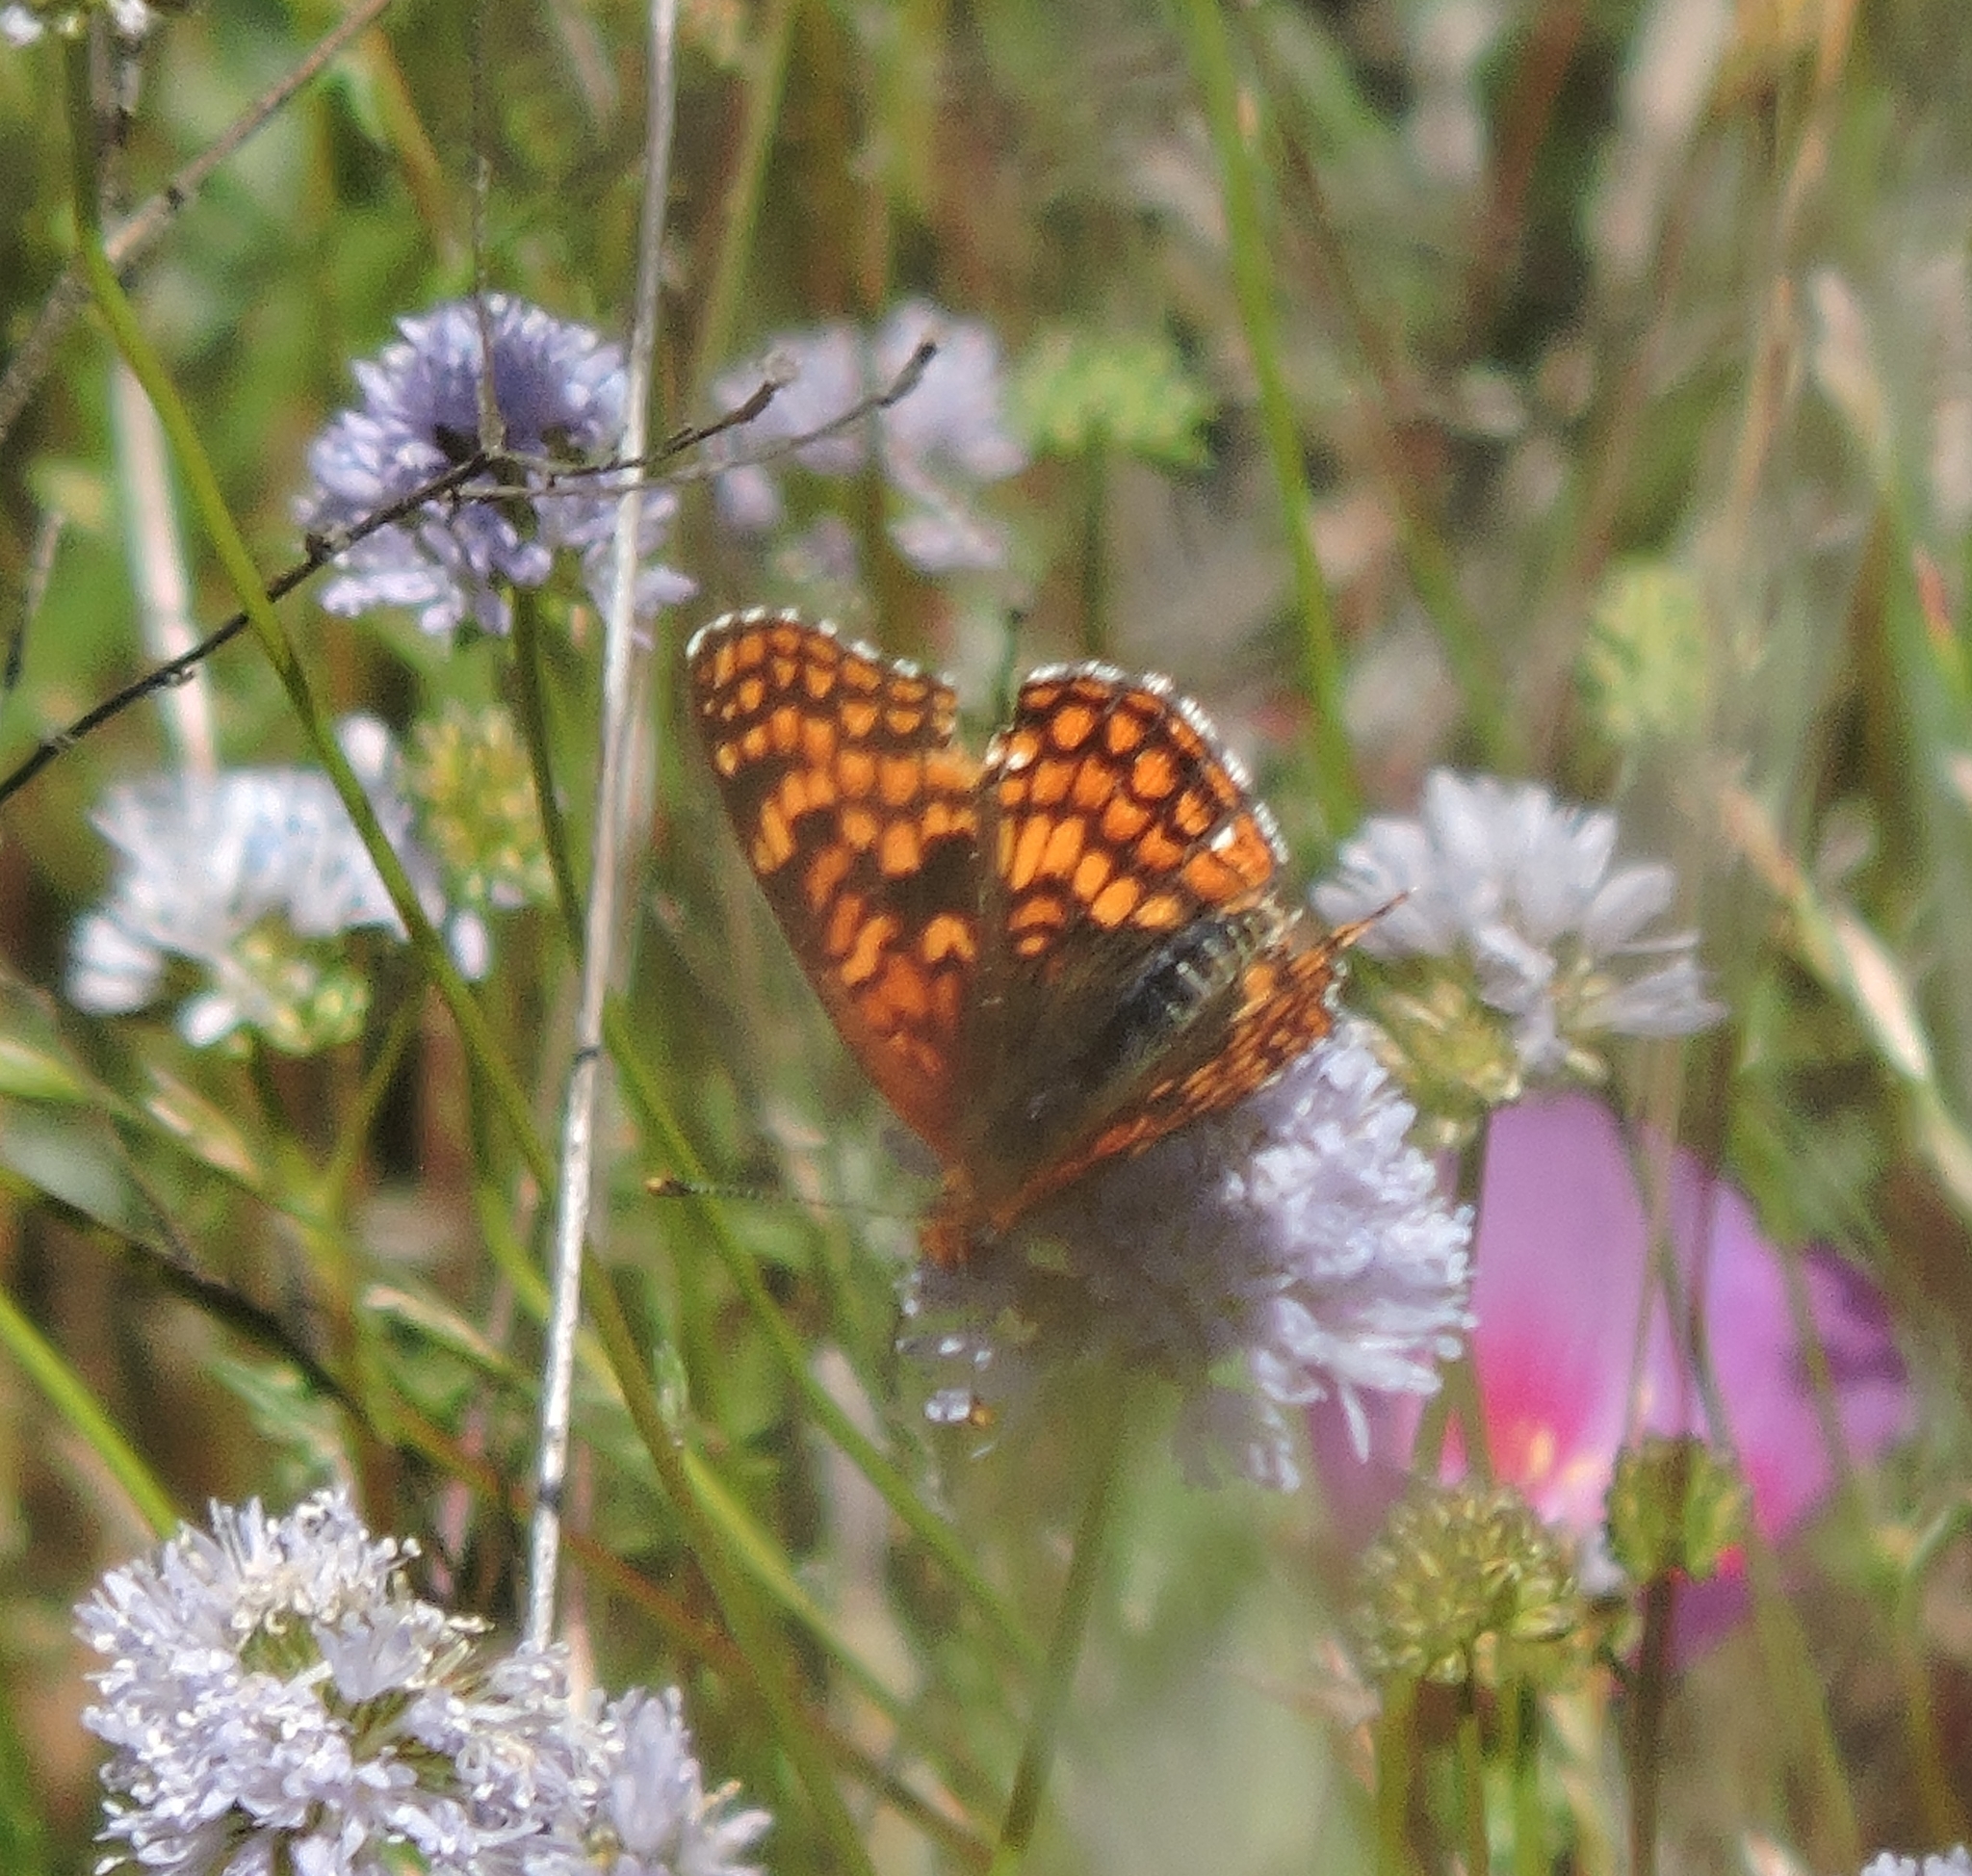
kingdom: Animalia
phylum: Arthropoda
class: Insecta
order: Lepidoptera
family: Nymphalidae
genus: Chlosyne
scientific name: Chlosyne palla
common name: Northern checkerspot
